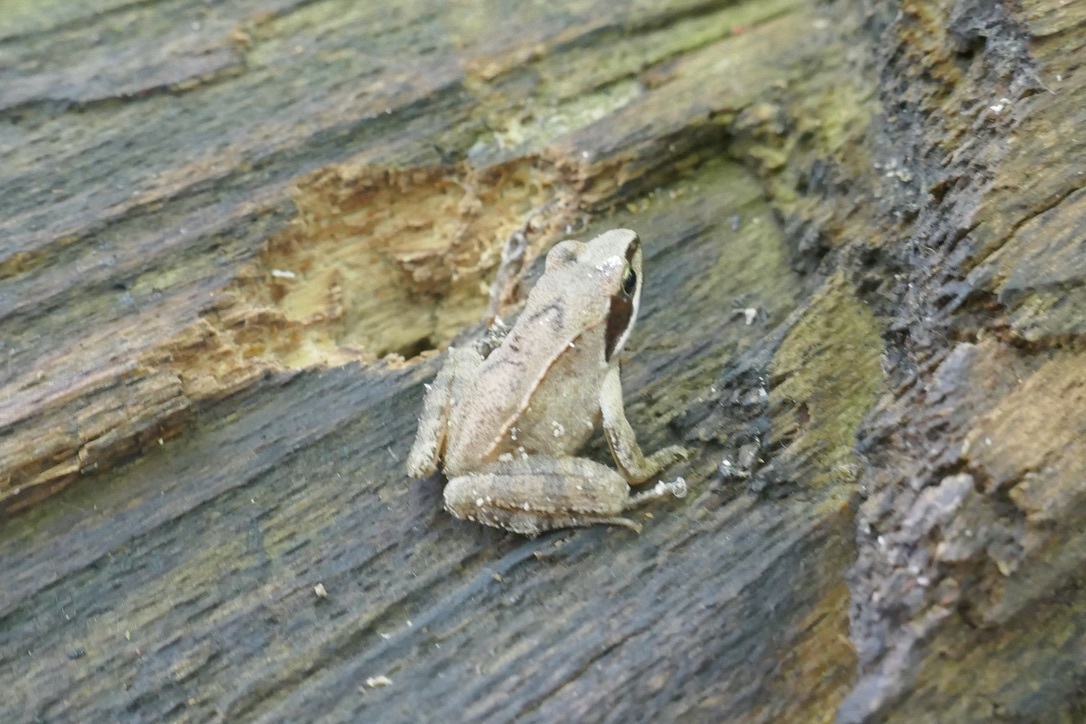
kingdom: Animalia
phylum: Chordata
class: Amphibia
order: Anura
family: Ranidae
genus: Rana
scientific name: Rana dalmatina
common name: Agile frog
